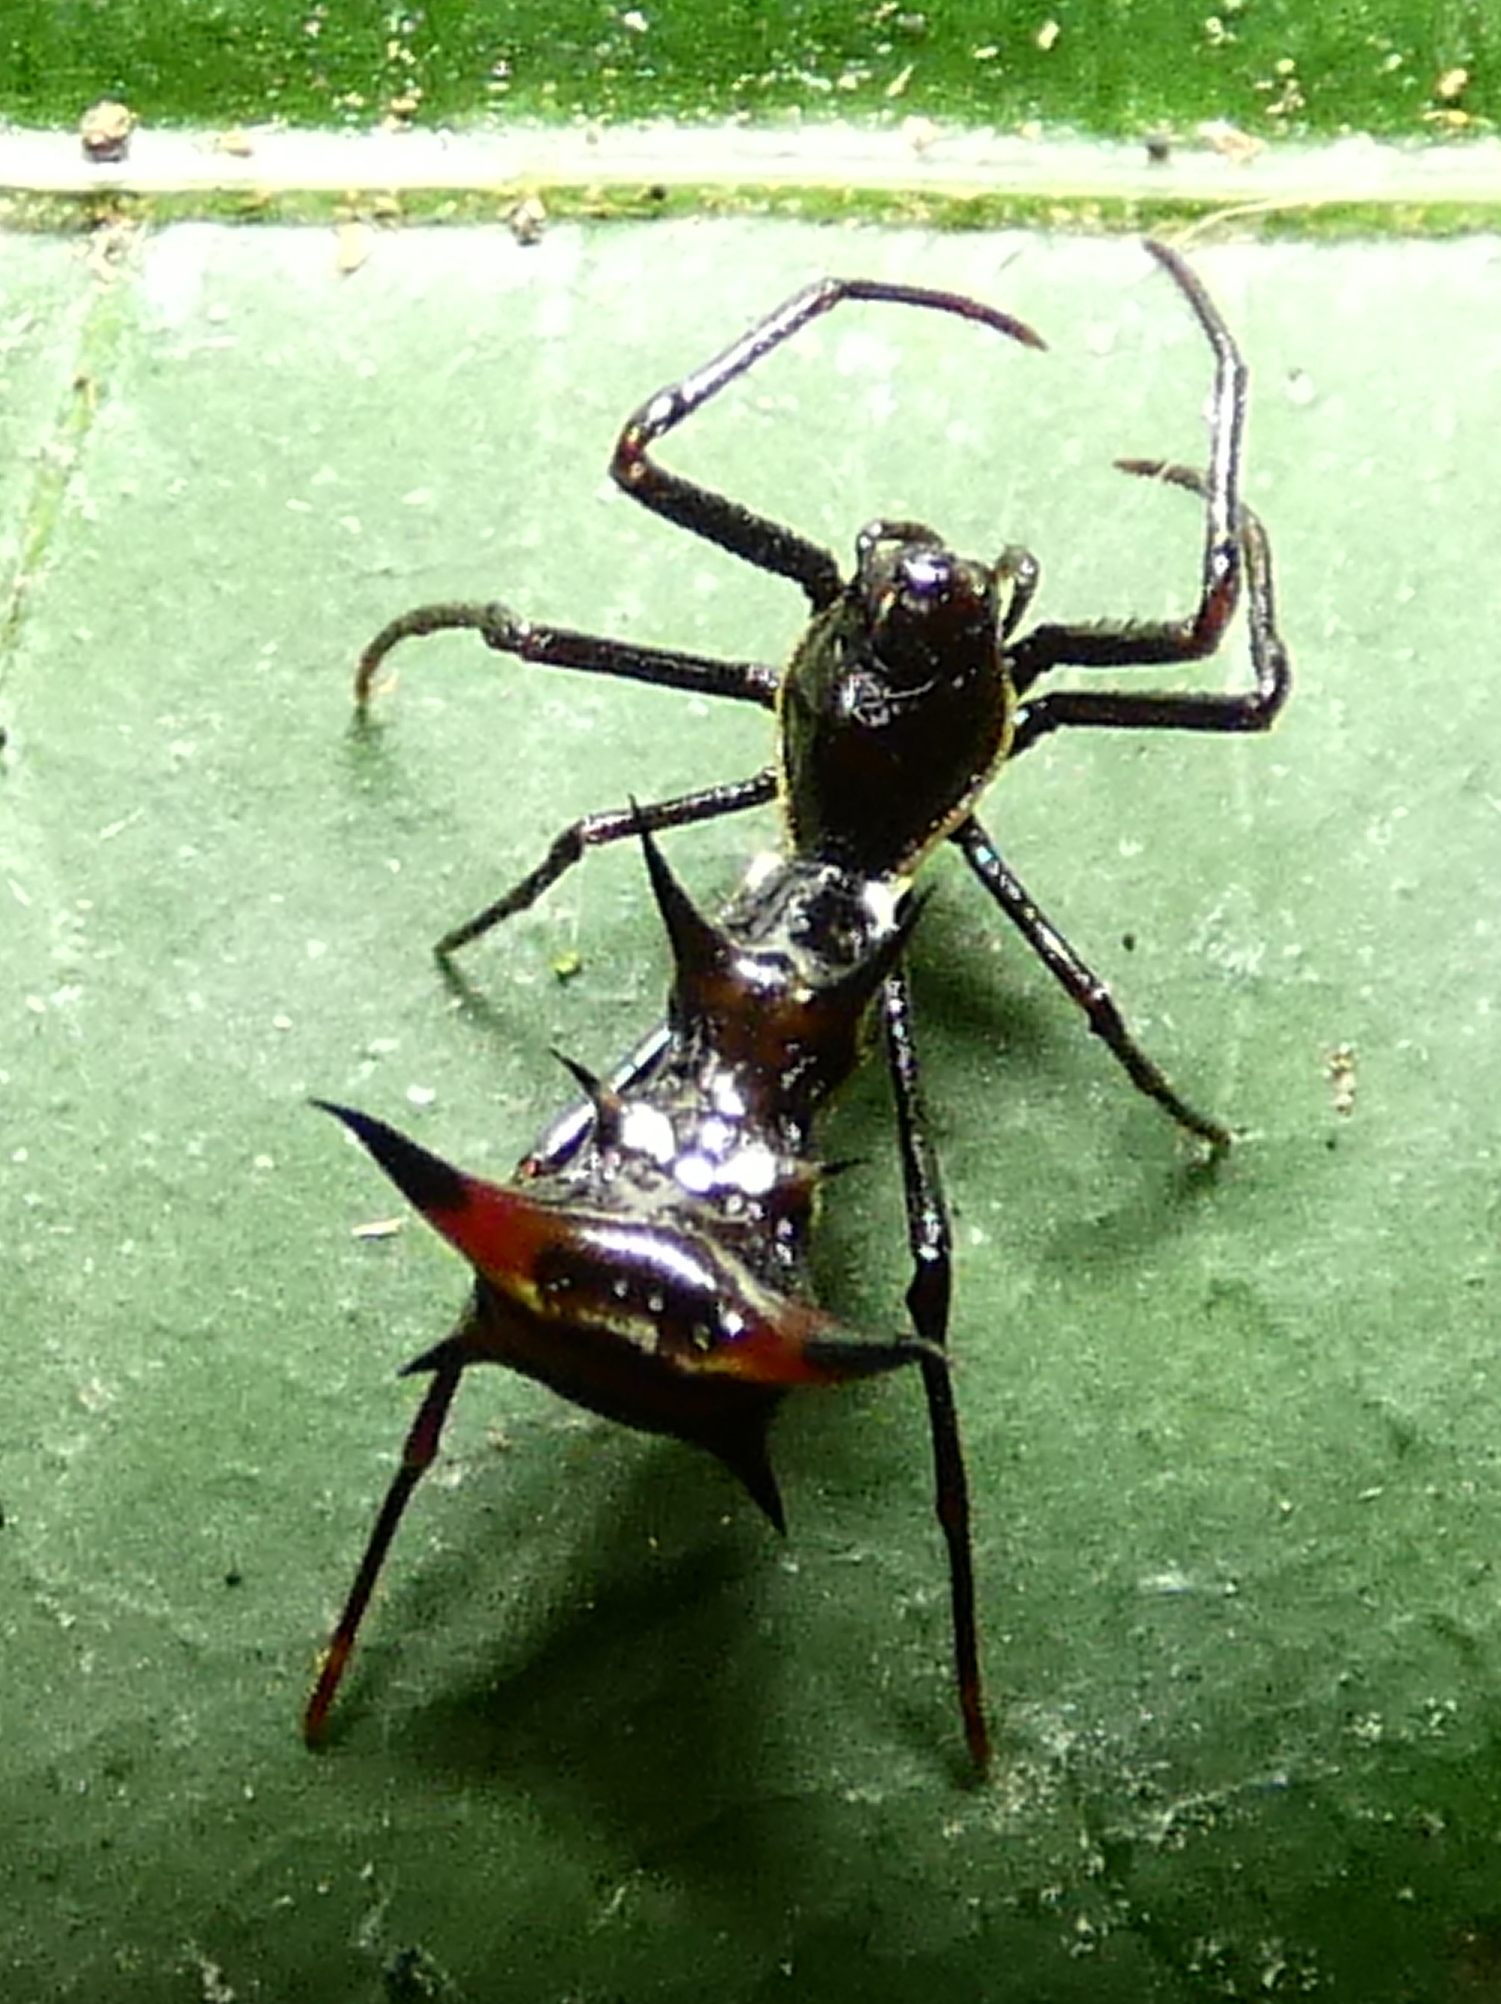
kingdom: Animalia
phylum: Arthropoda
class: Arachnida
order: Araneae
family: Araneidae
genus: Micrathena
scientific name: Micrathena schreibersi
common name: Orb weavers
